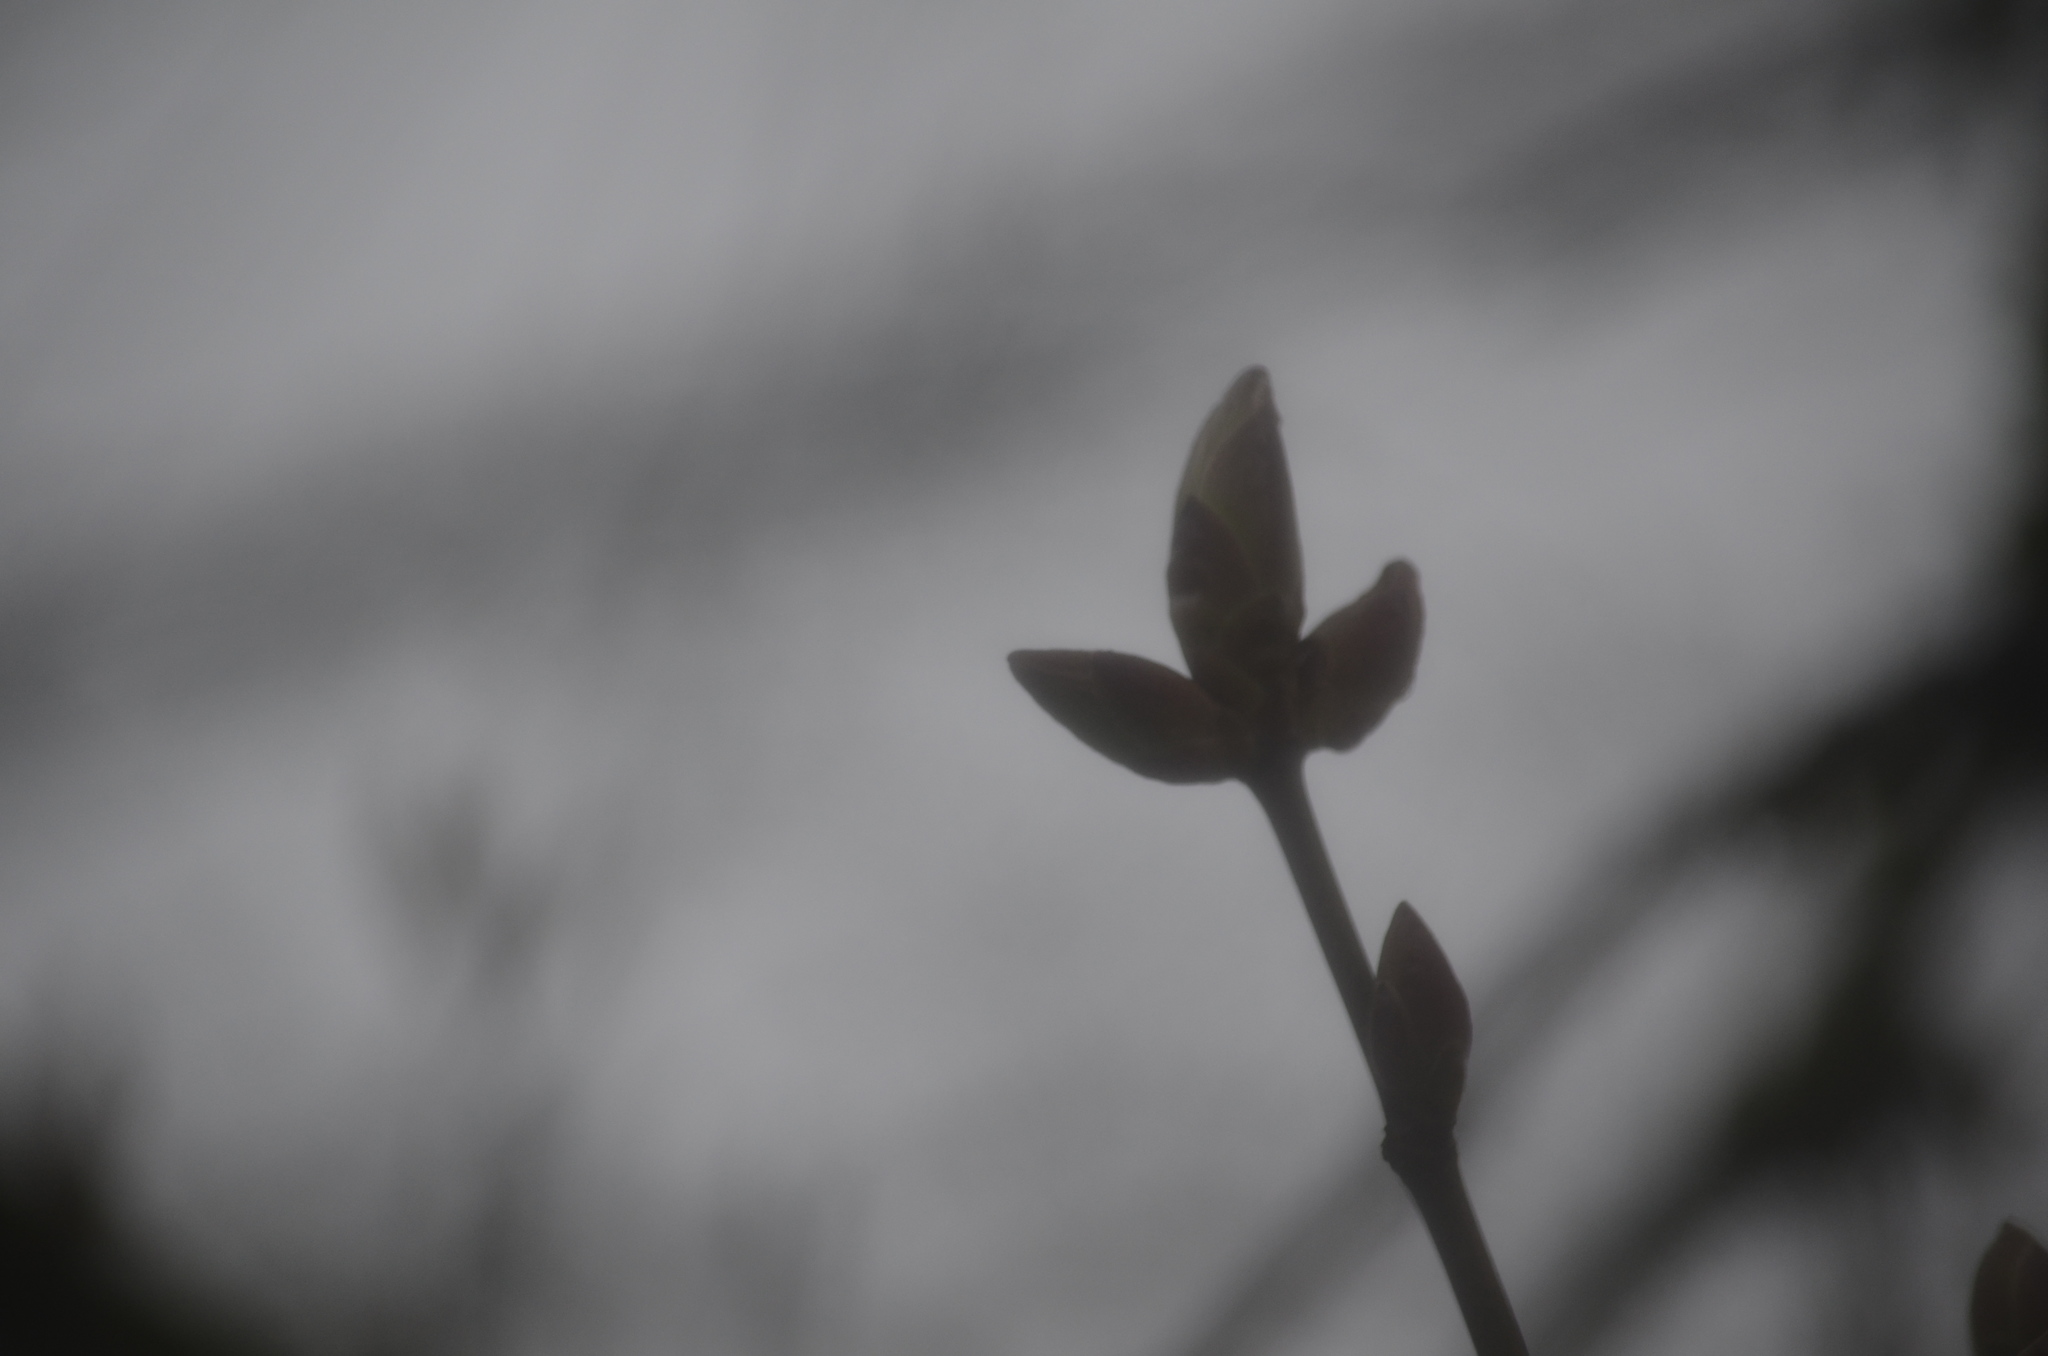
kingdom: Plantae
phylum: Tracheophyta
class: Magnoliopsida
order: Sapindales
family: Sapindaceae
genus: Acer
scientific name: Acer macrophyllum
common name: Oregon maple
